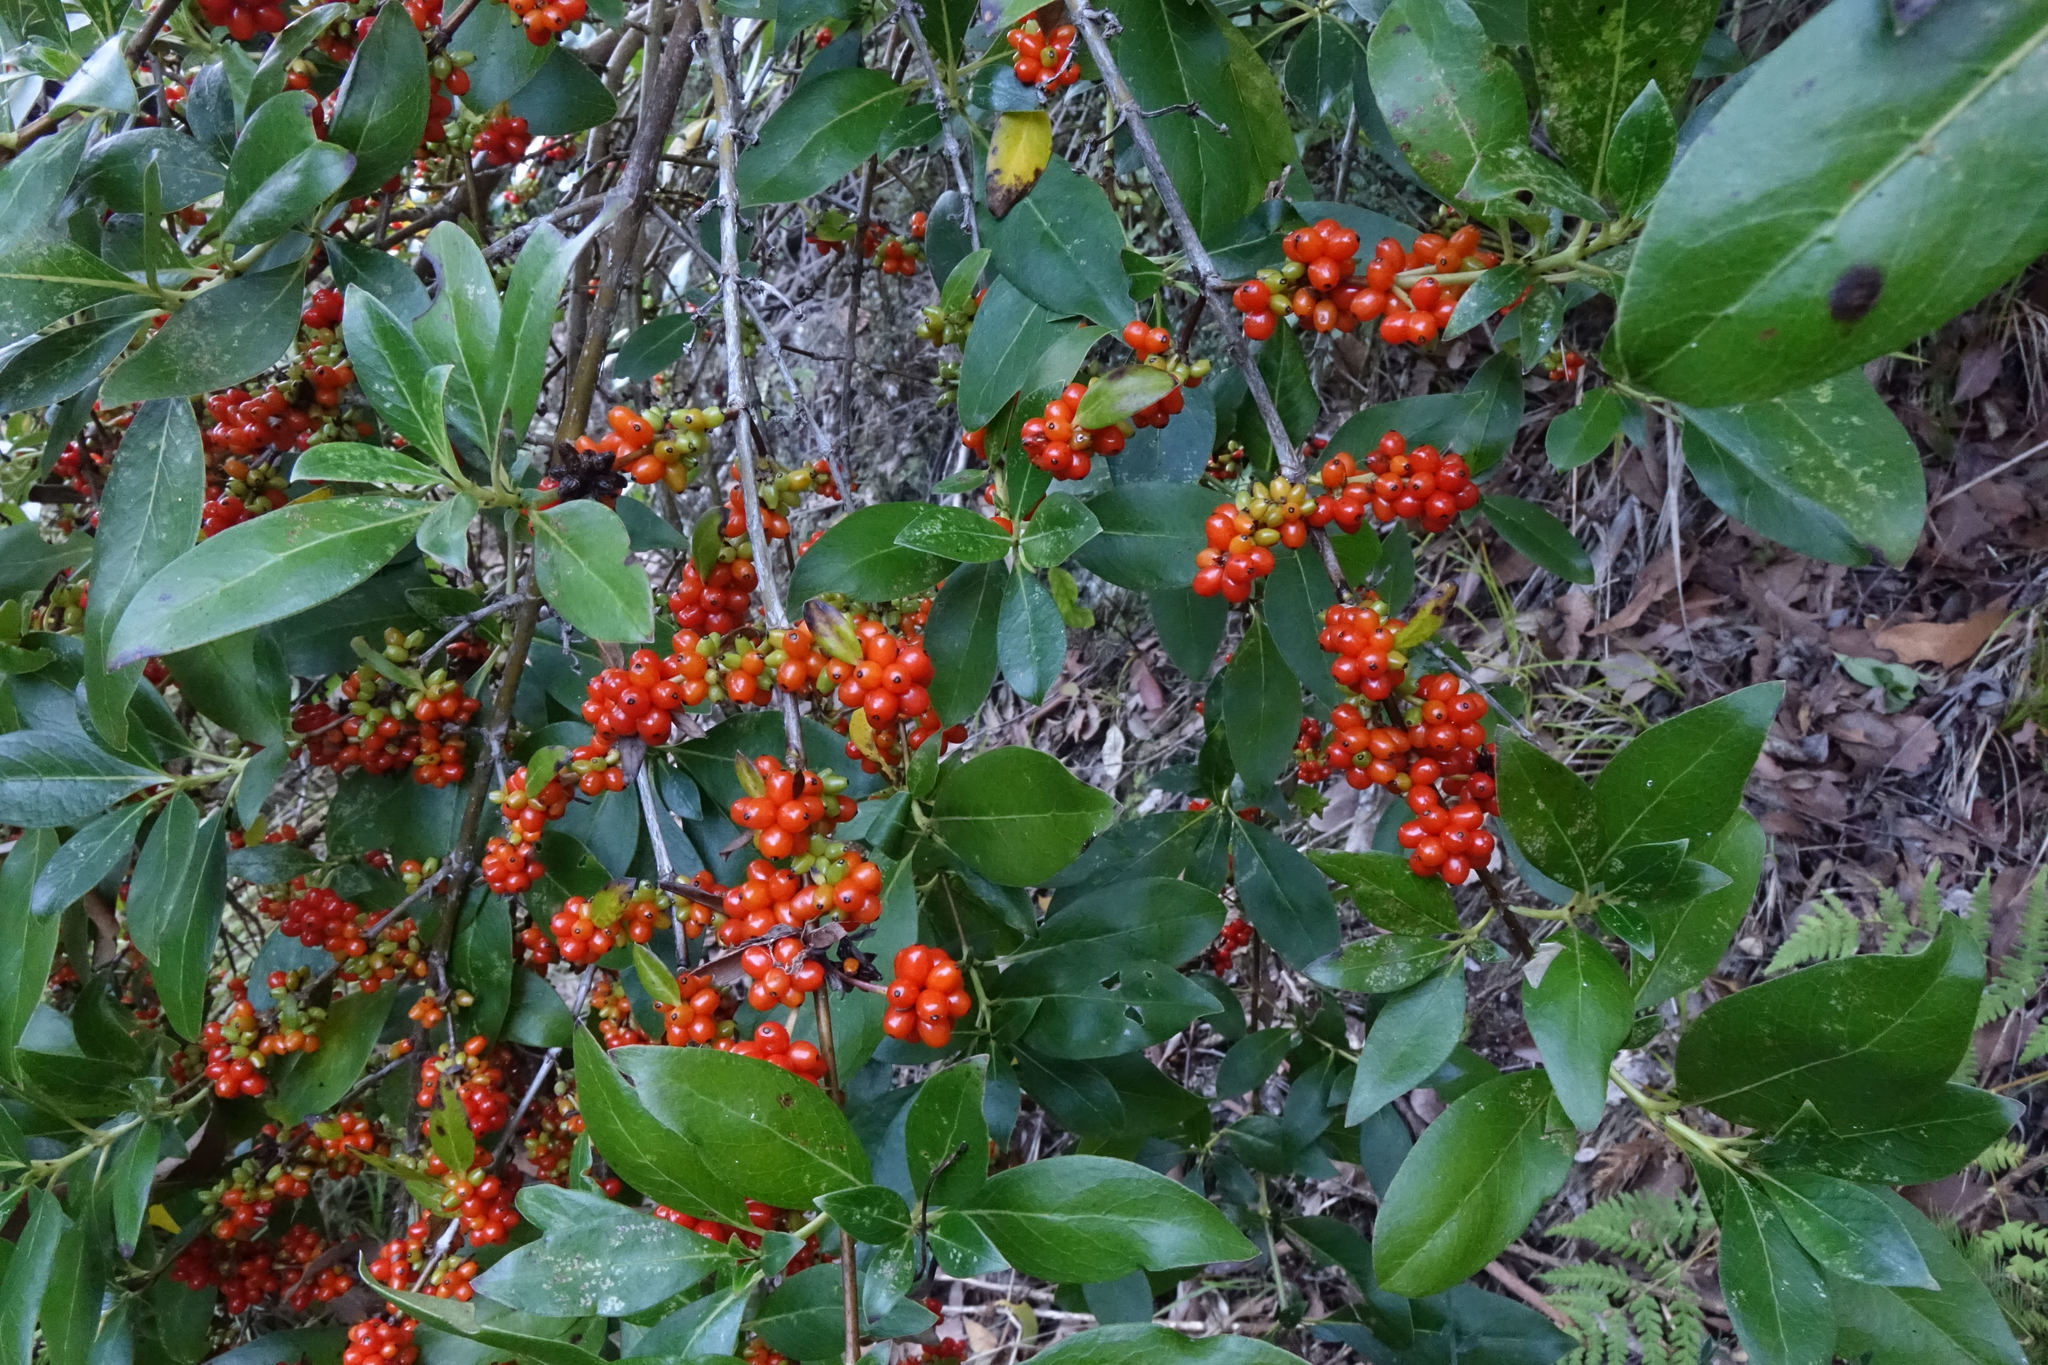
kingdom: Plantae
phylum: Tracheophyta
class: Magnoliopsida
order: Gentianales
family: Rubiaceae
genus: Coprosma
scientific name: Coprosma robusta
